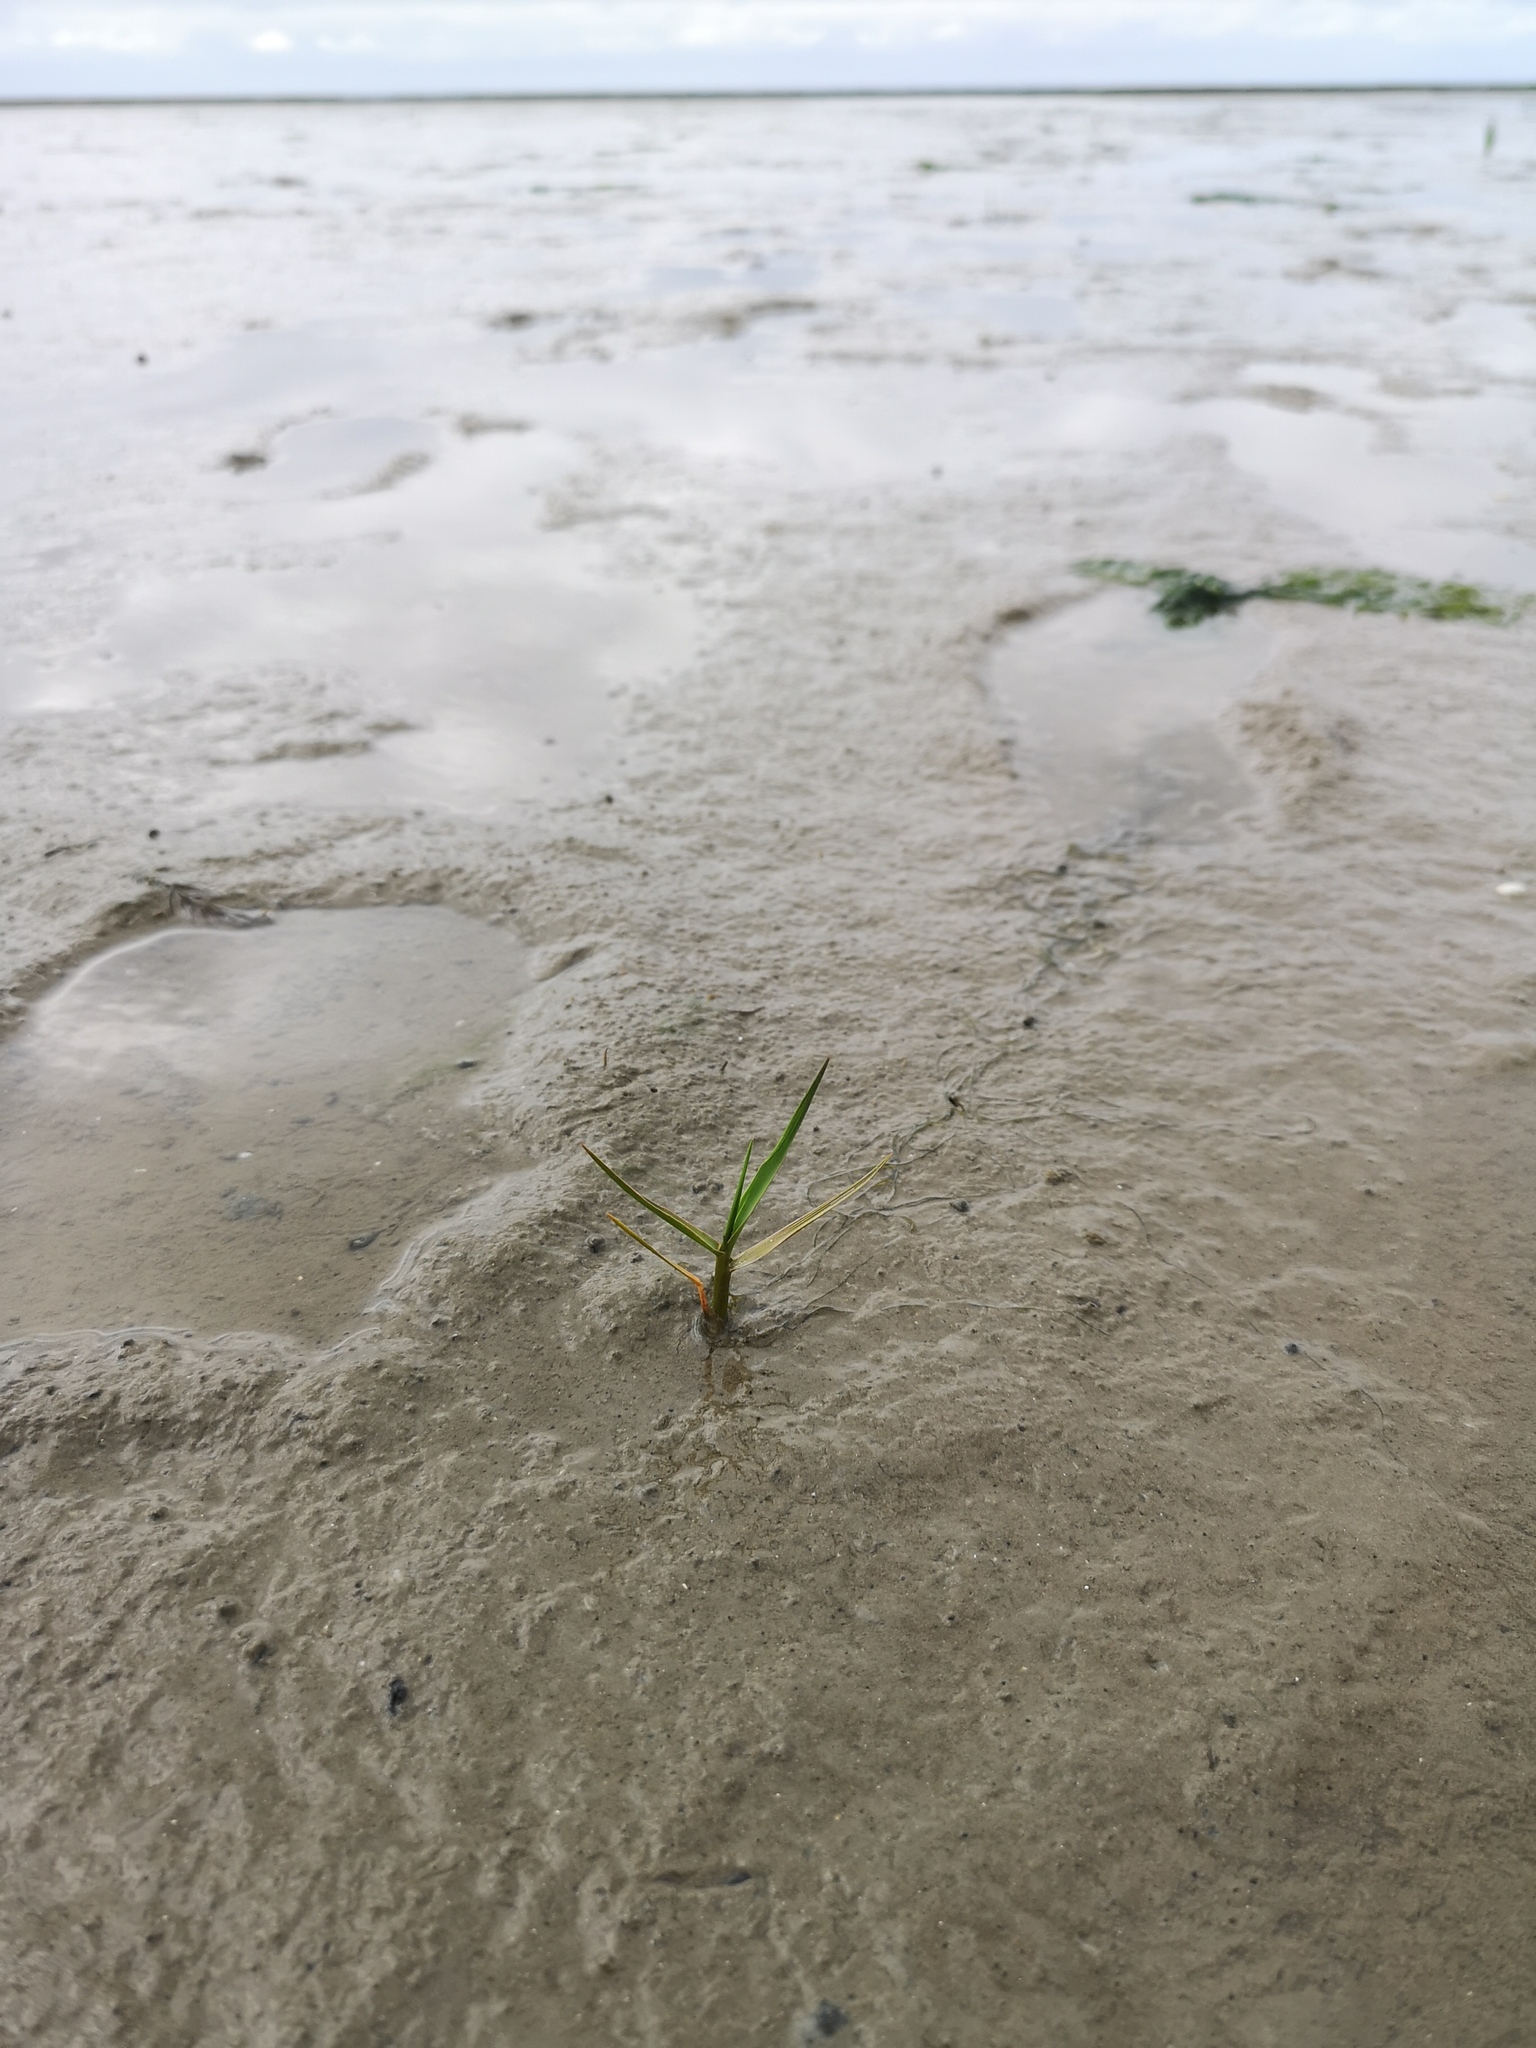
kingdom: Plantae
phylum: Tracheophyta
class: Liliopsida
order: Poales
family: Poaceae
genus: Phragmites
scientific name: Phragmites australis
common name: Common reed
